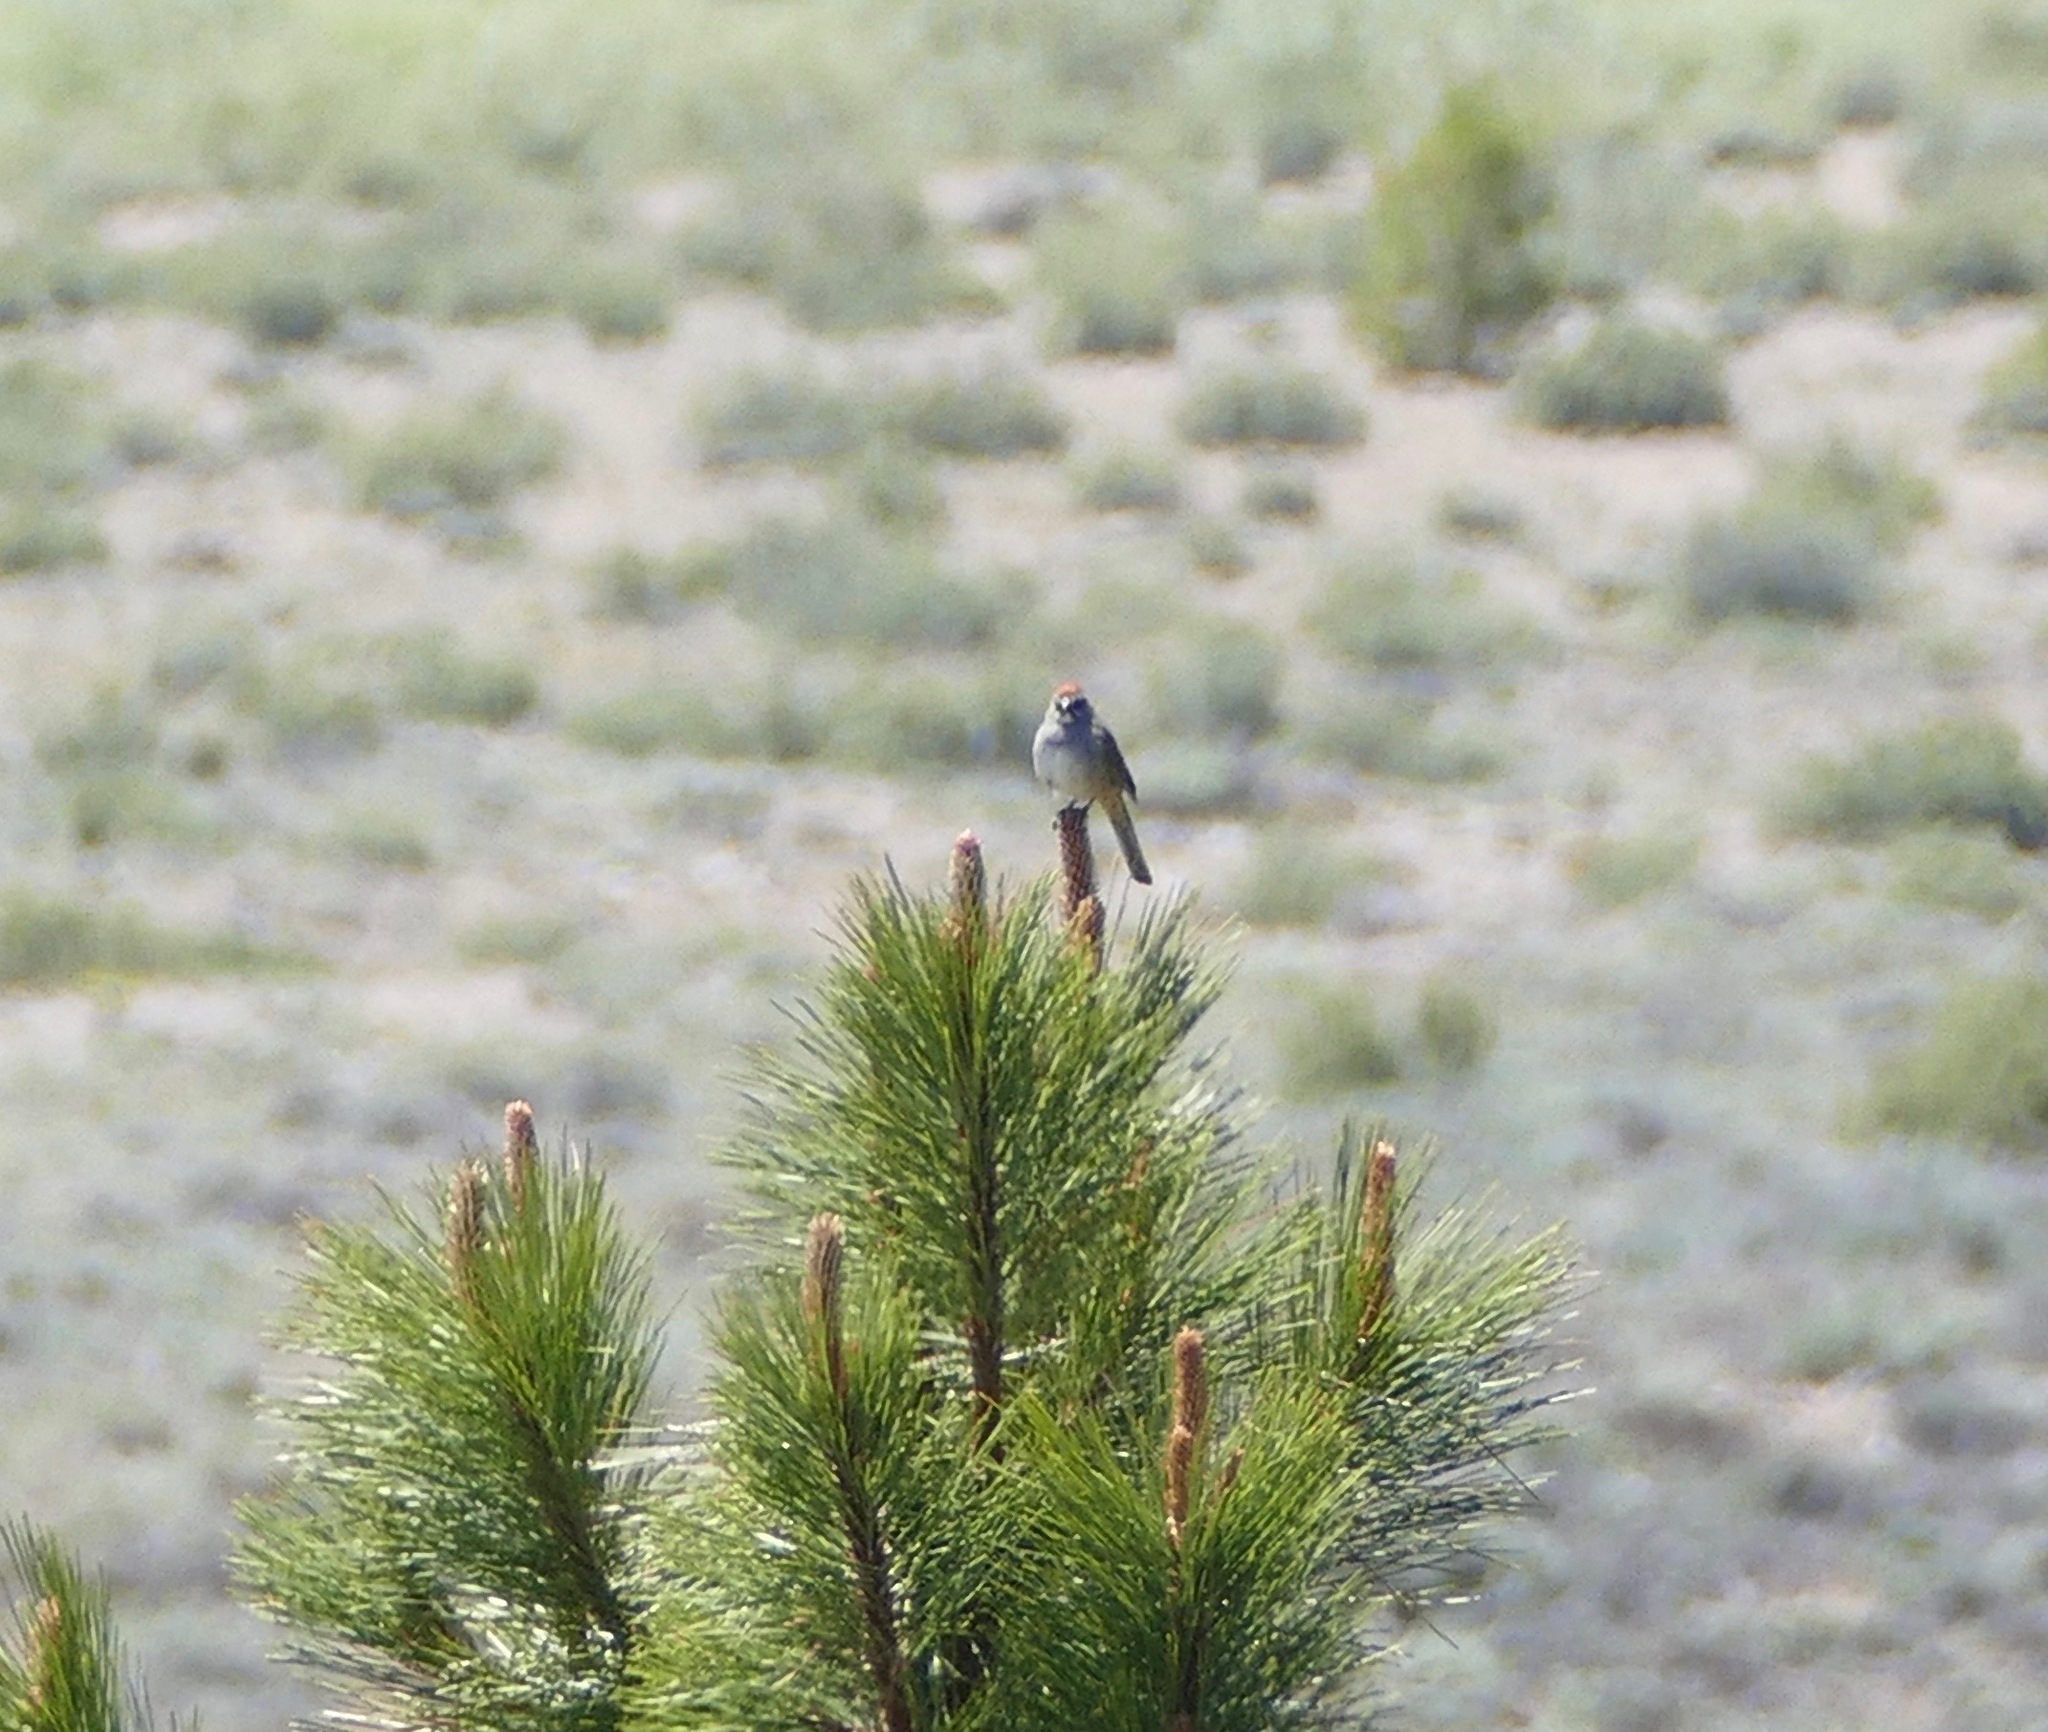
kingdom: Animalia
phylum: Chordata
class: Aves
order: Passeriformes
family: Passerellidae
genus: Pipilo
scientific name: Pipilo chlorurus
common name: Green-tailed towhee
